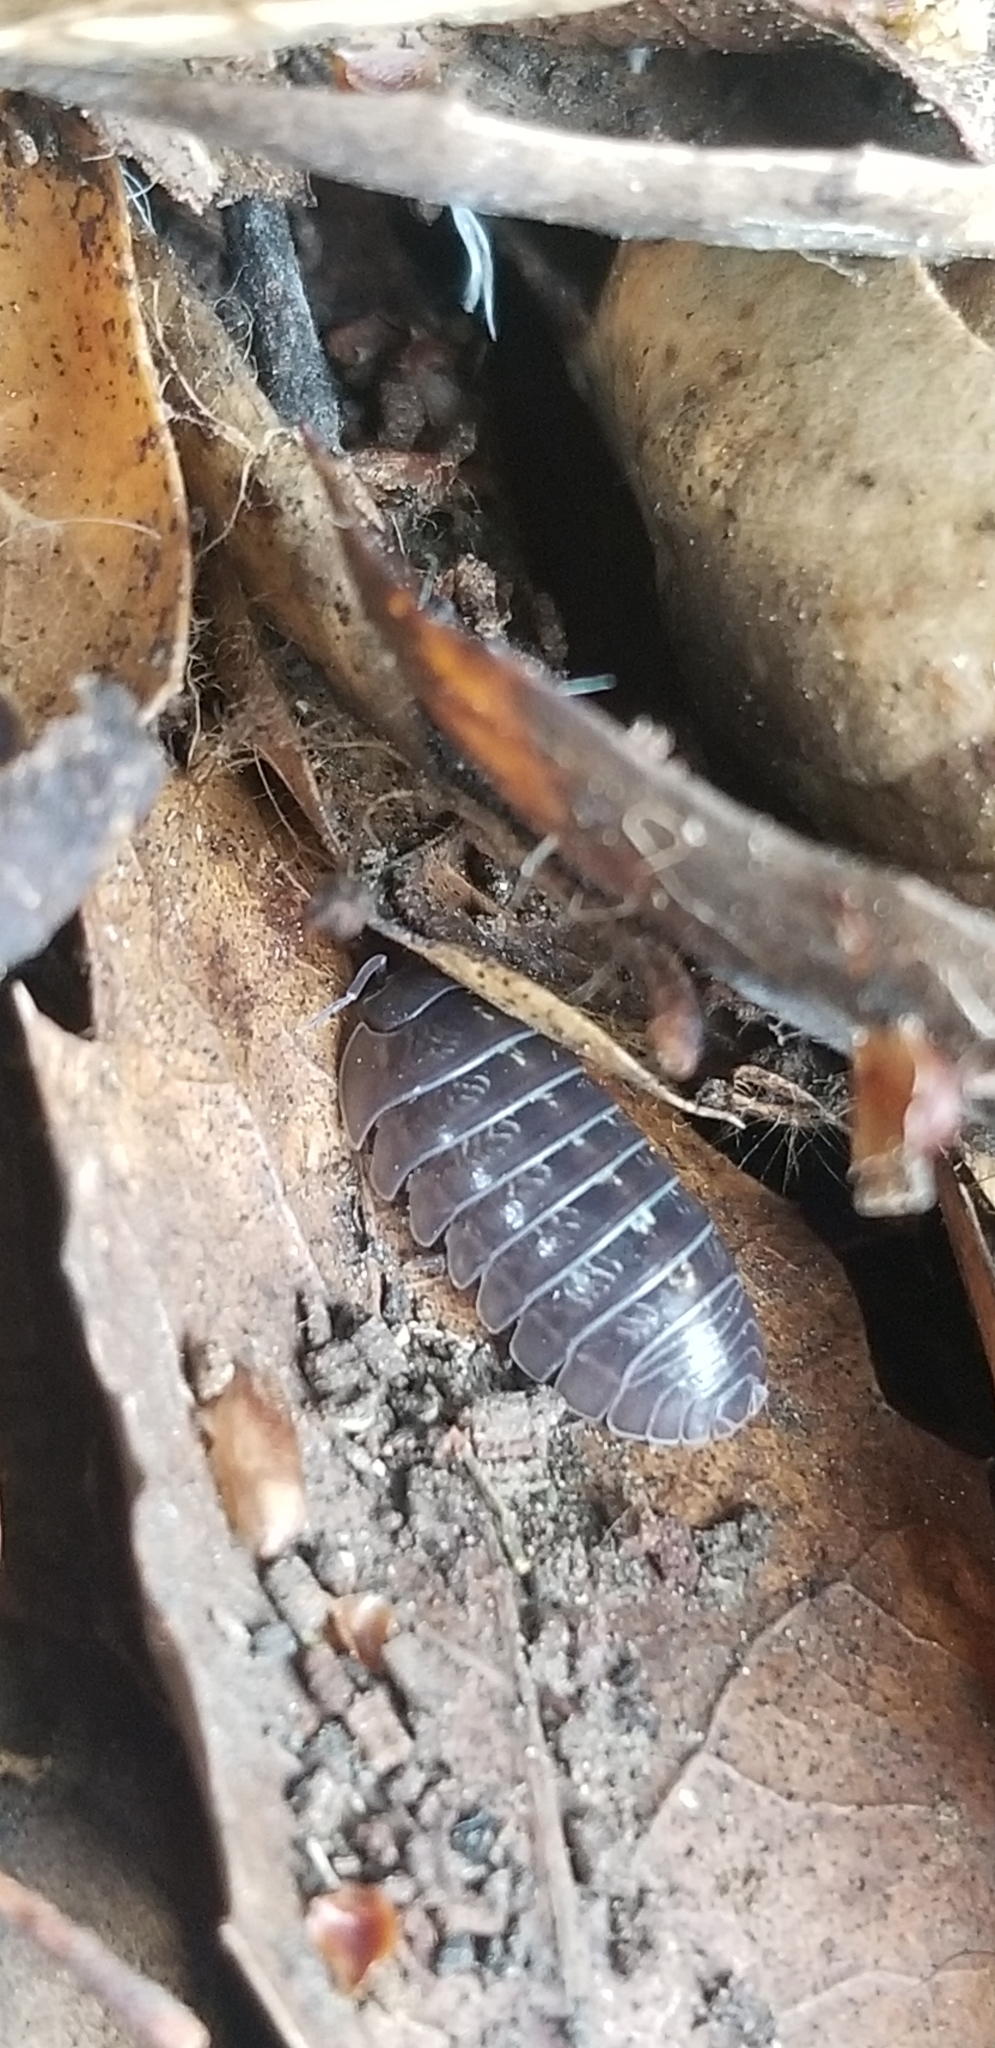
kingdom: Animalia
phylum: Arthropoda
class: Malacostraca
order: Isopoda
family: Armadillidiidae
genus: Armadillidium
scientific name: Armadillidium vulgare
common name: Common pill woodlouse
